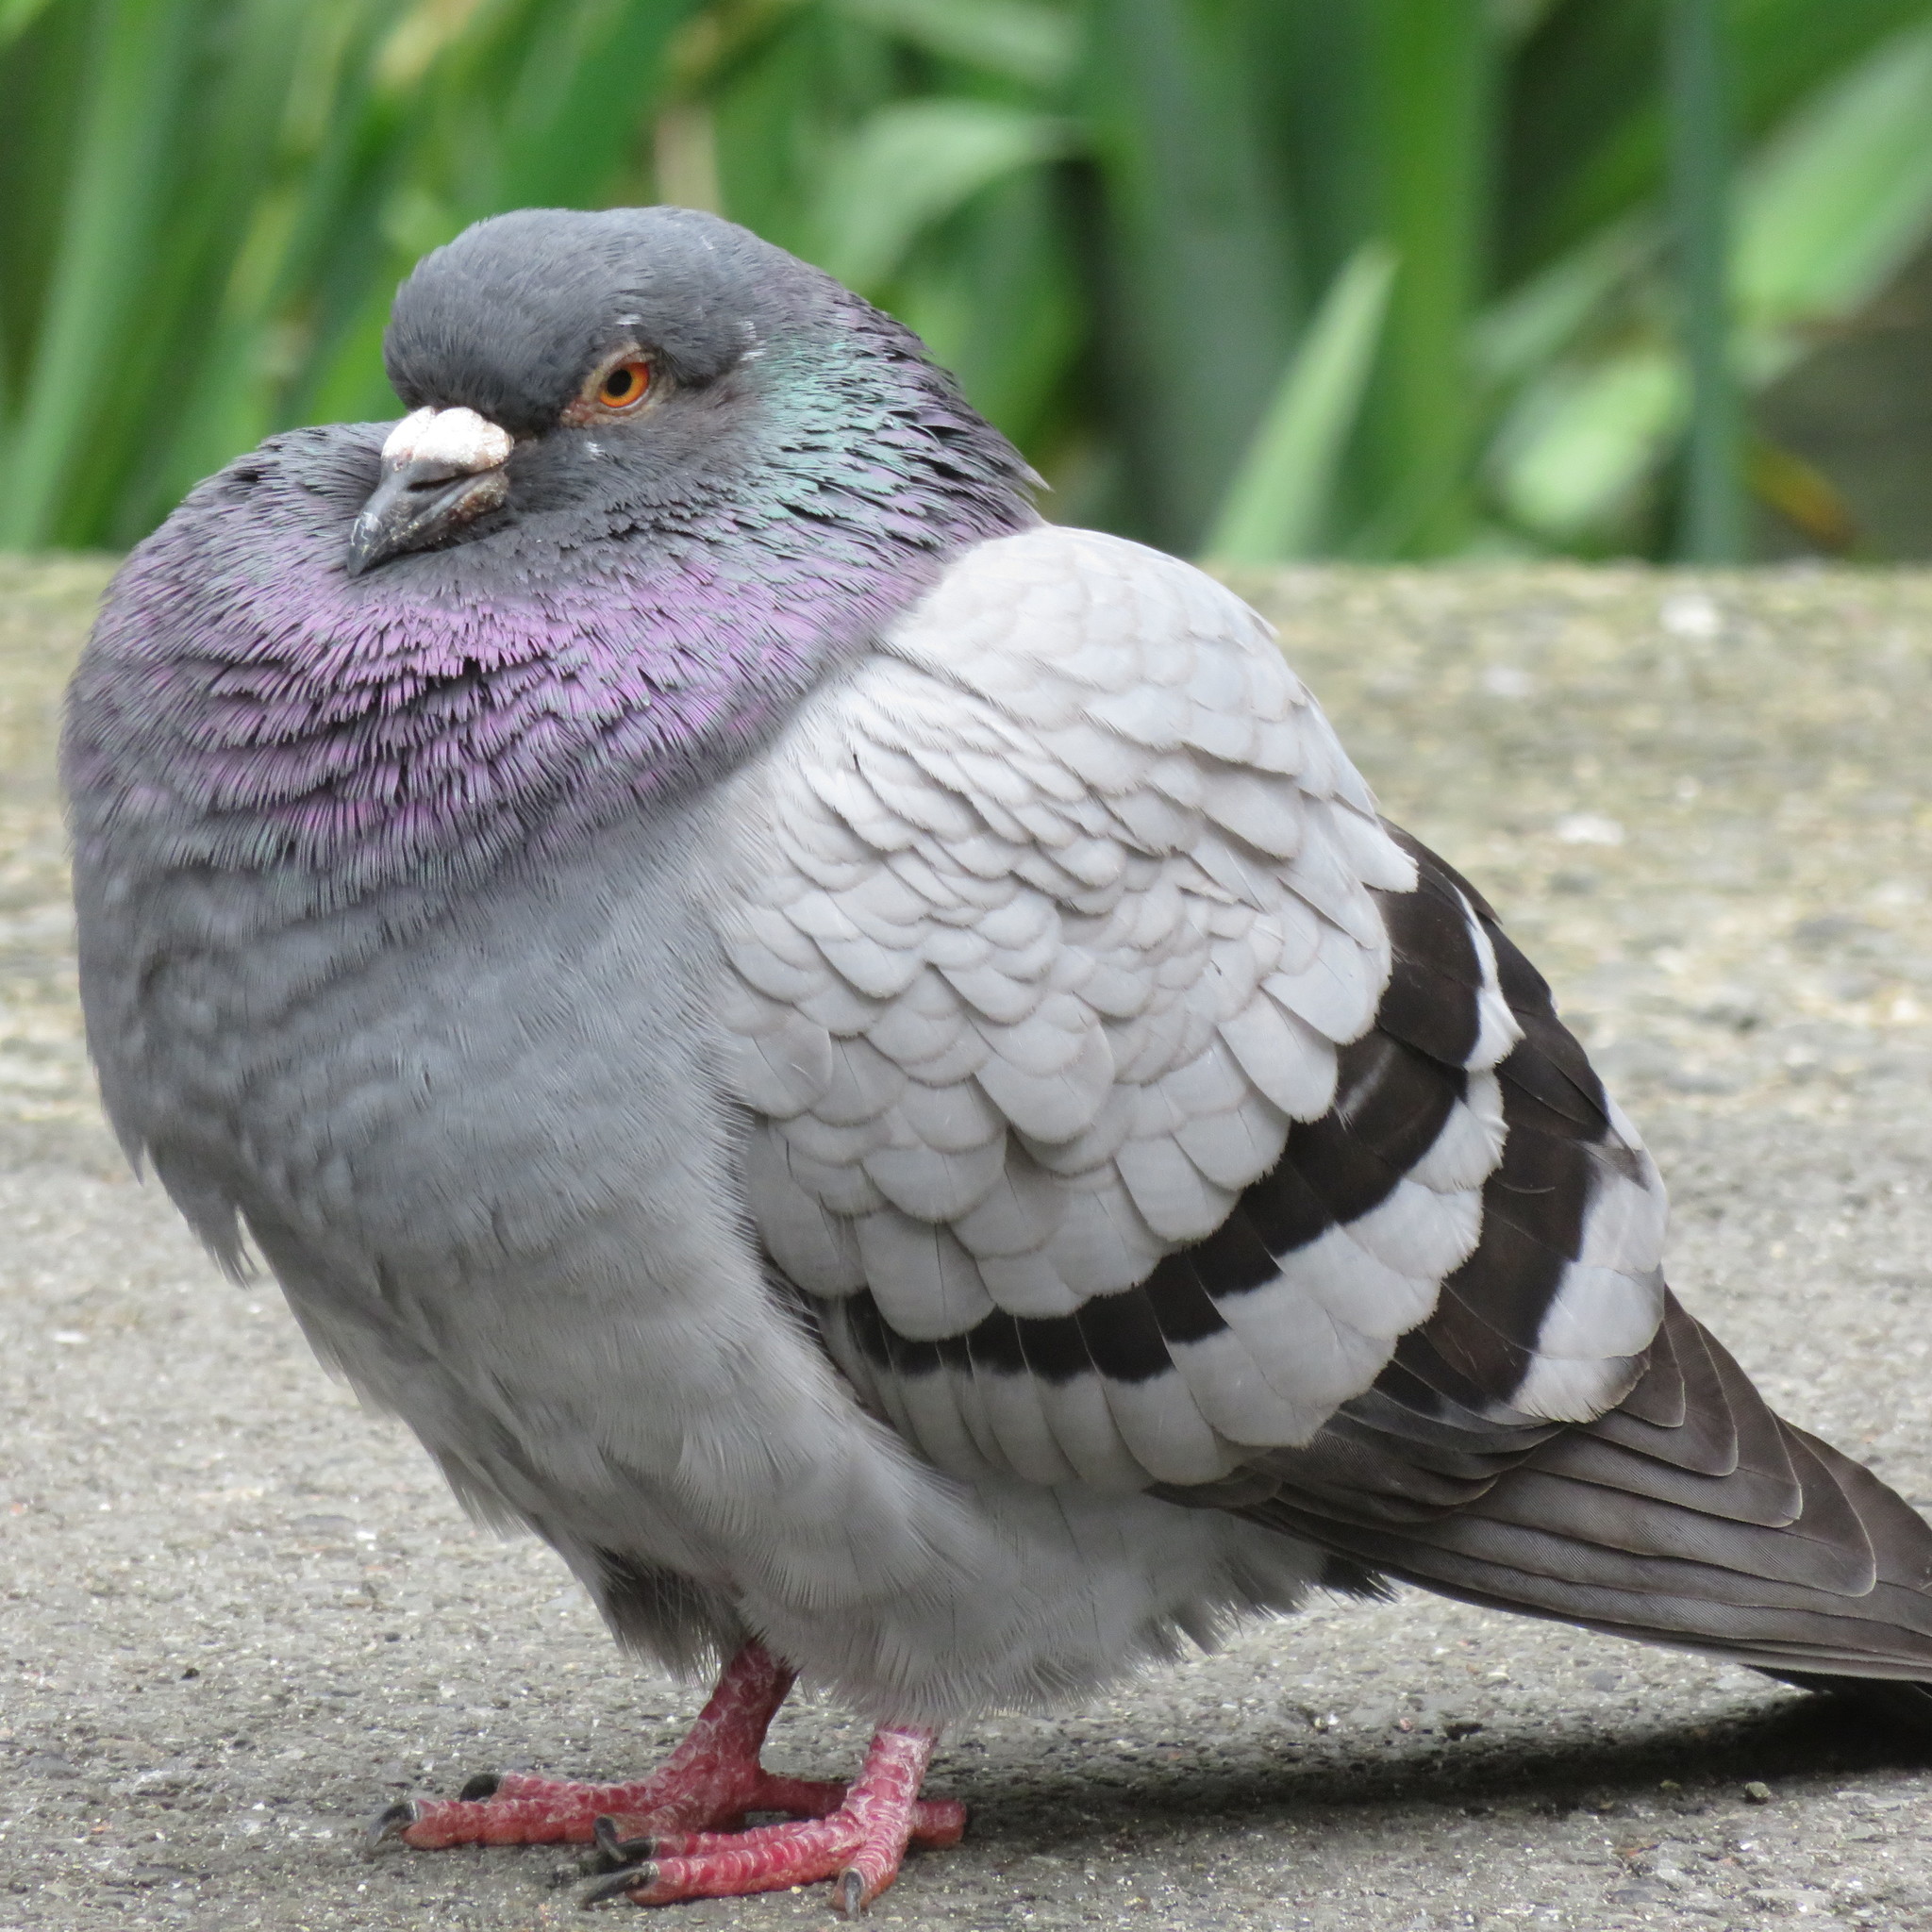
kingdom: Animalia
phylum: Chordata
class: Aves
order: Columbiformes
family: Columbidae
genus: Columba
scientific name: Columba livia
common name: Rock pigeon
